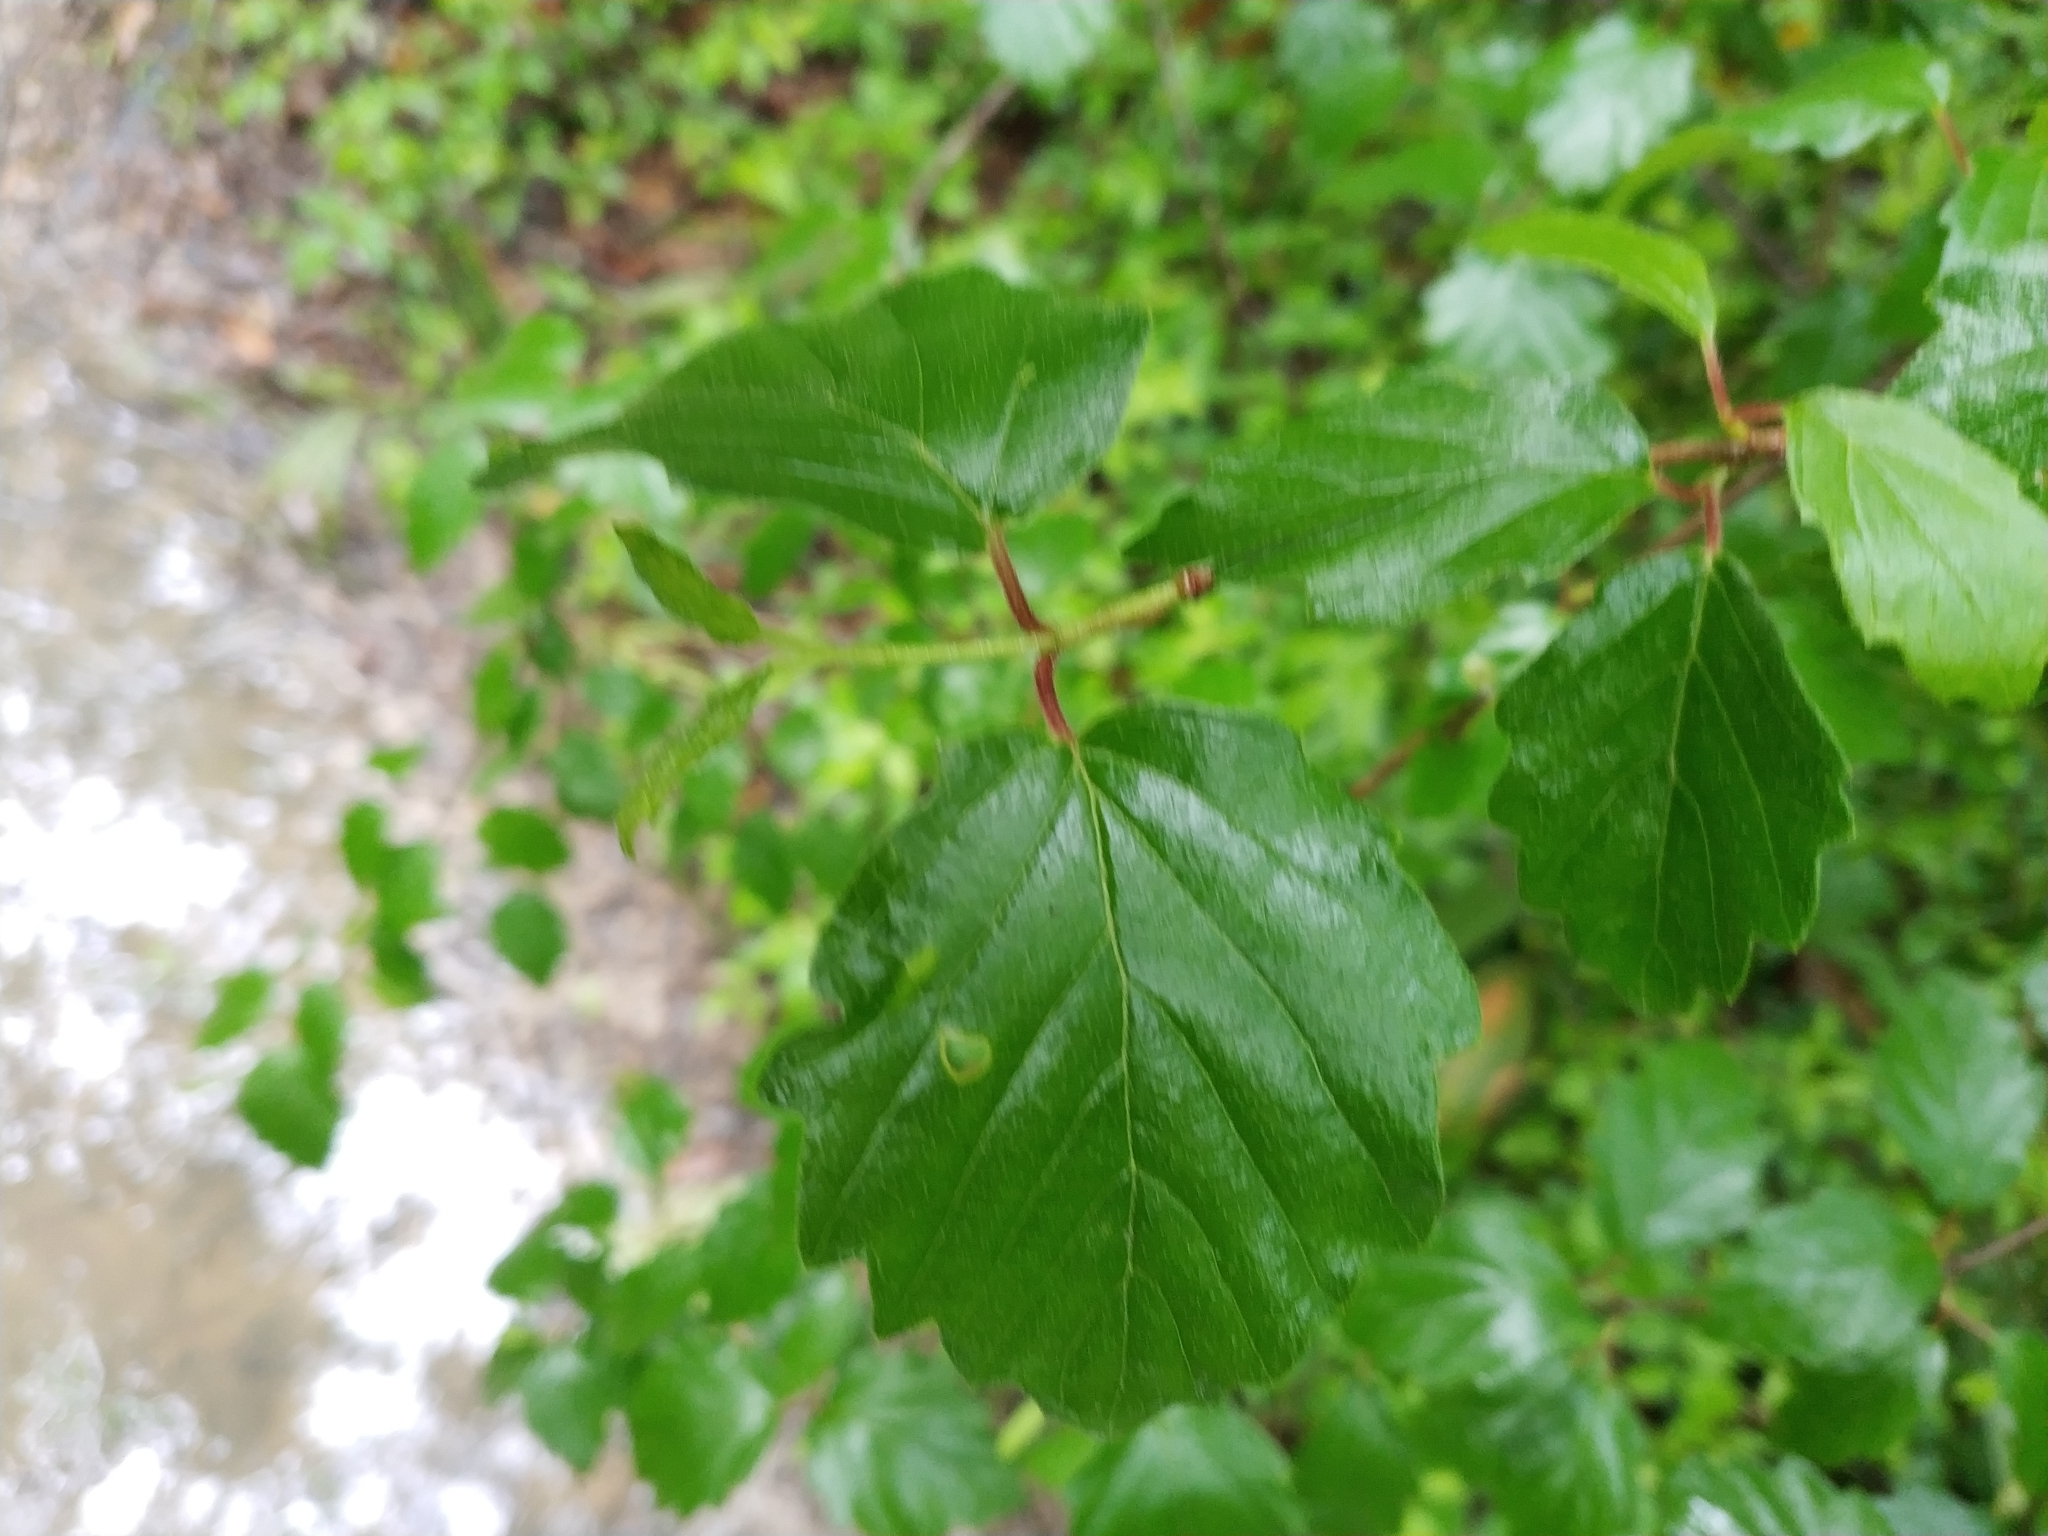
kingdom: Plantae
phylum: Tracheophyta
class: Magnoliopsida
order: Dipsacales
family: Viburnaceae
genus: Viburnum
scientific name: Viburnum scabrellum
